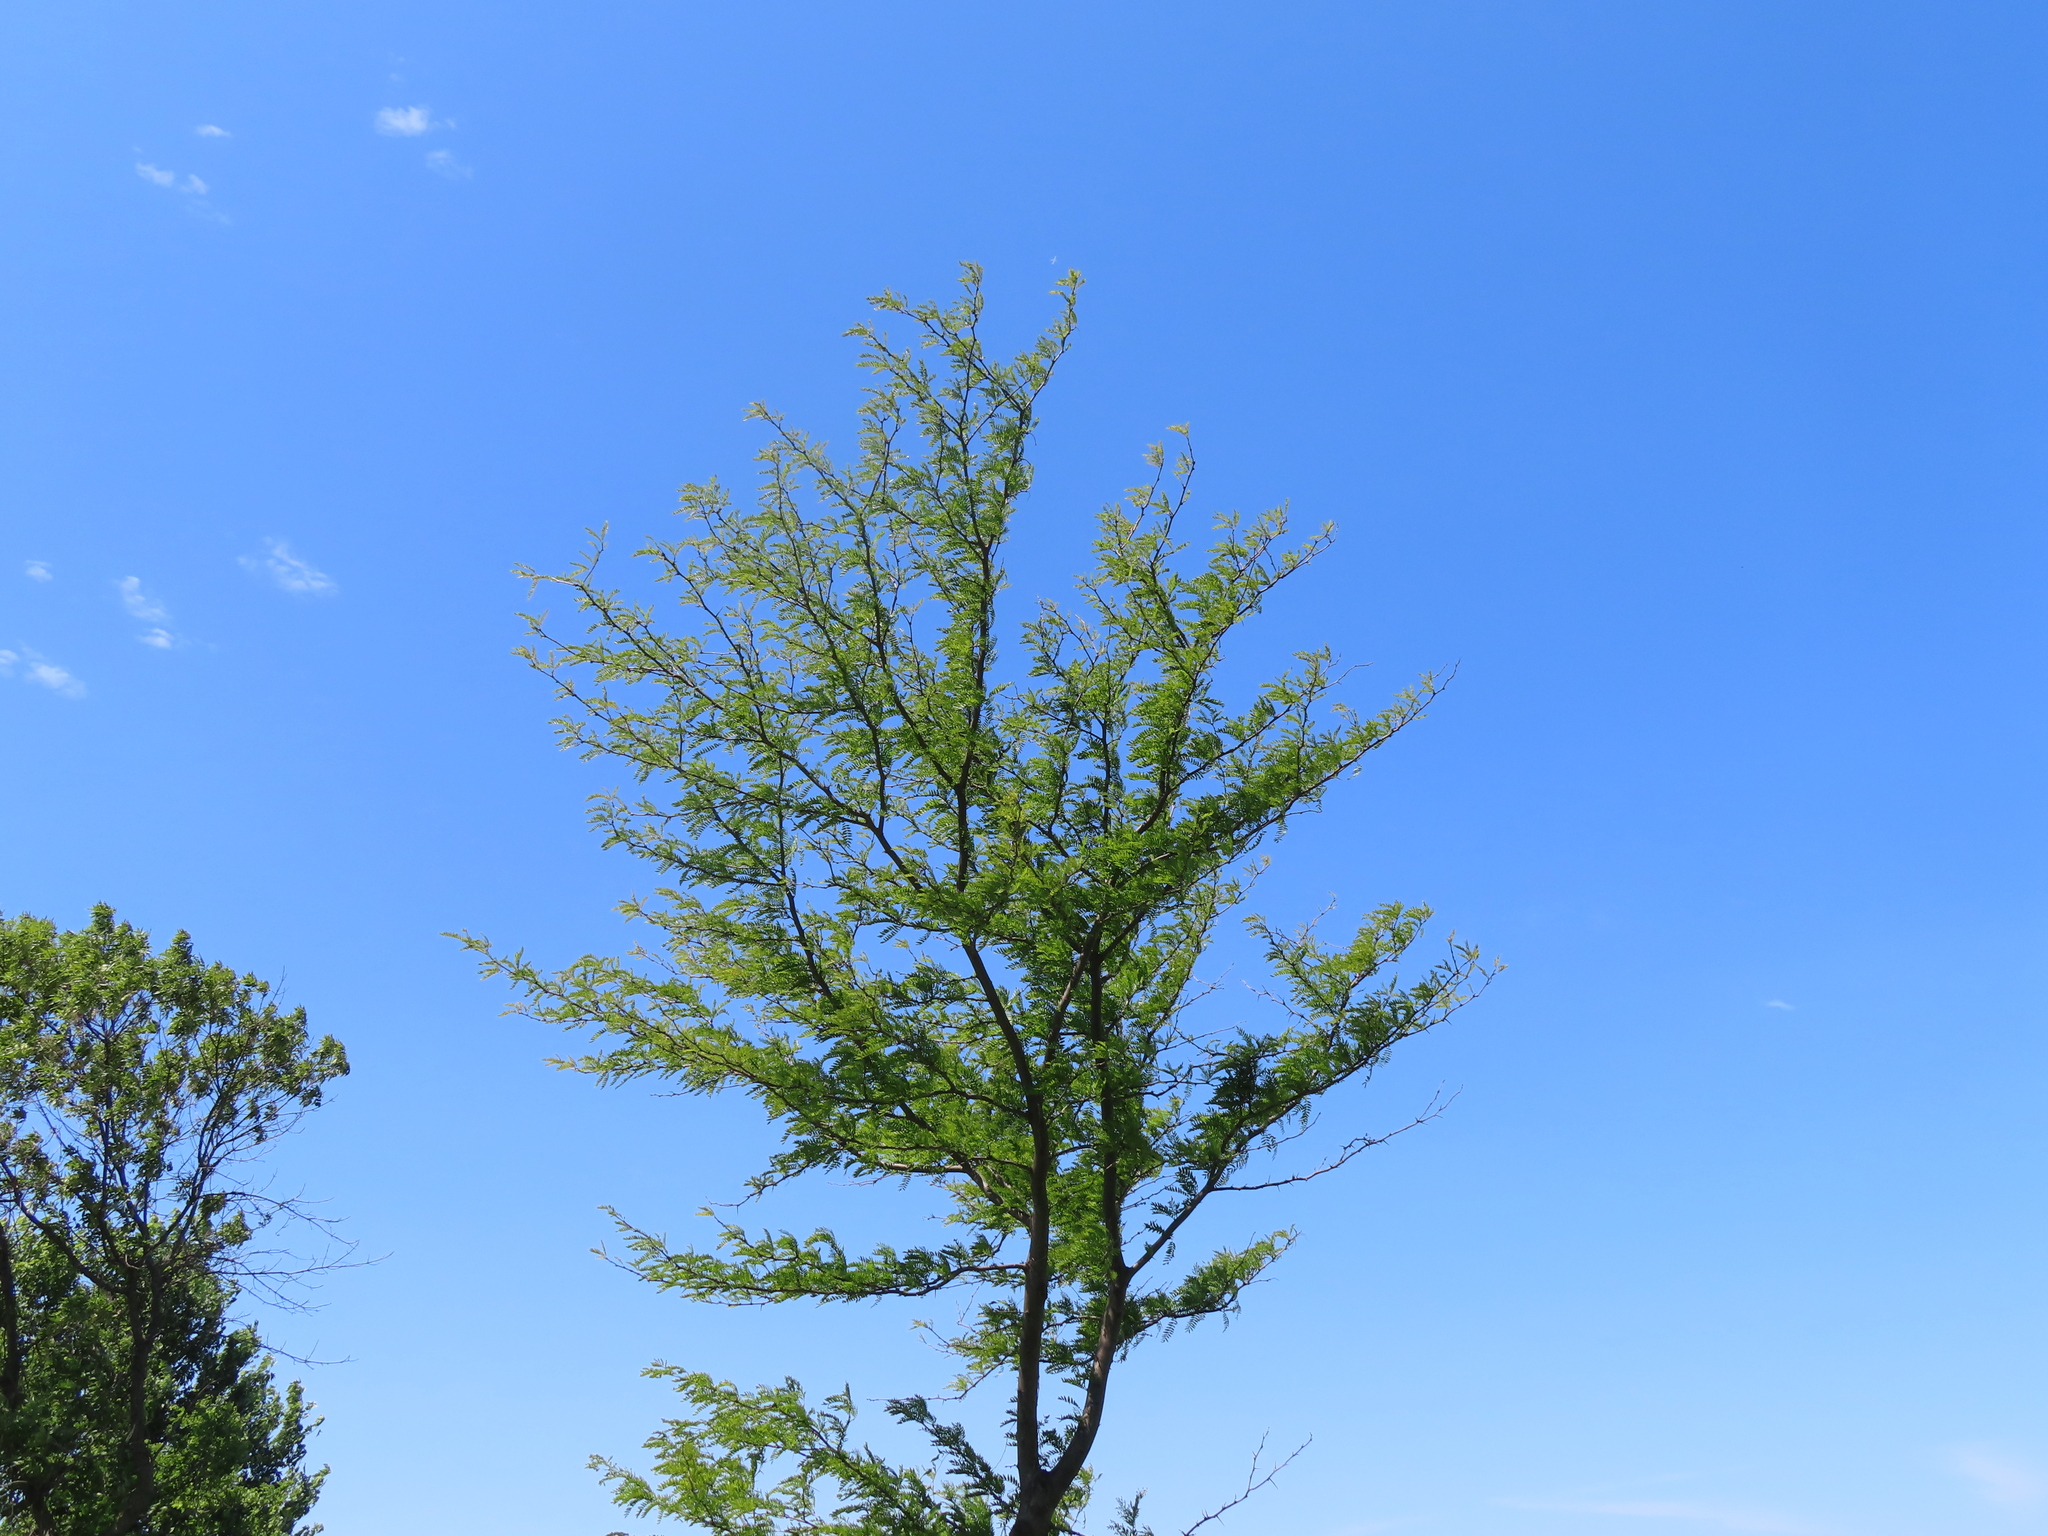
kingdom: Plantae
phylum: Tracheophyta
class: Magnoliopsida
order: Fabales
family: Fabaceae
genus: Robinia
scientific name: Robinia pseudoacacia
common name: Black locust
